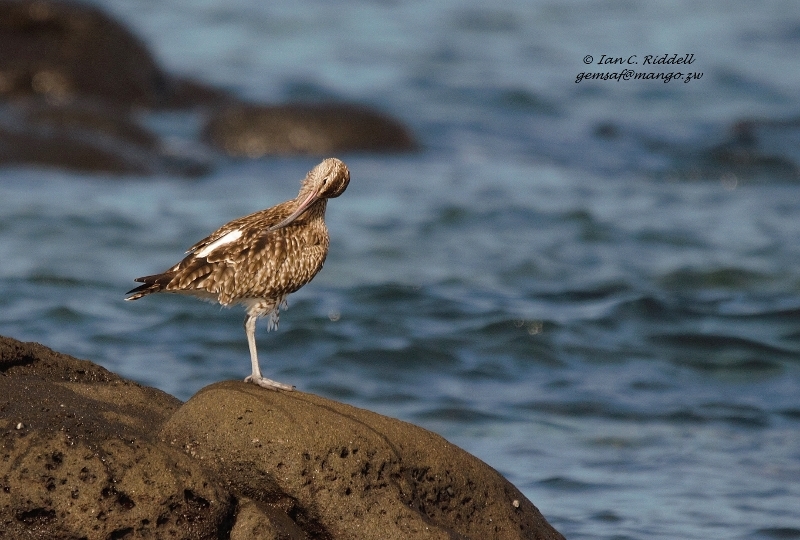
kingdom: Animalia
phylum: Chordata
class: Aves
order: Charadriiformes
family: Scolopacidae
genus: Numenius
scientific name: Numenius phaeopus
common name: Whimbrel
